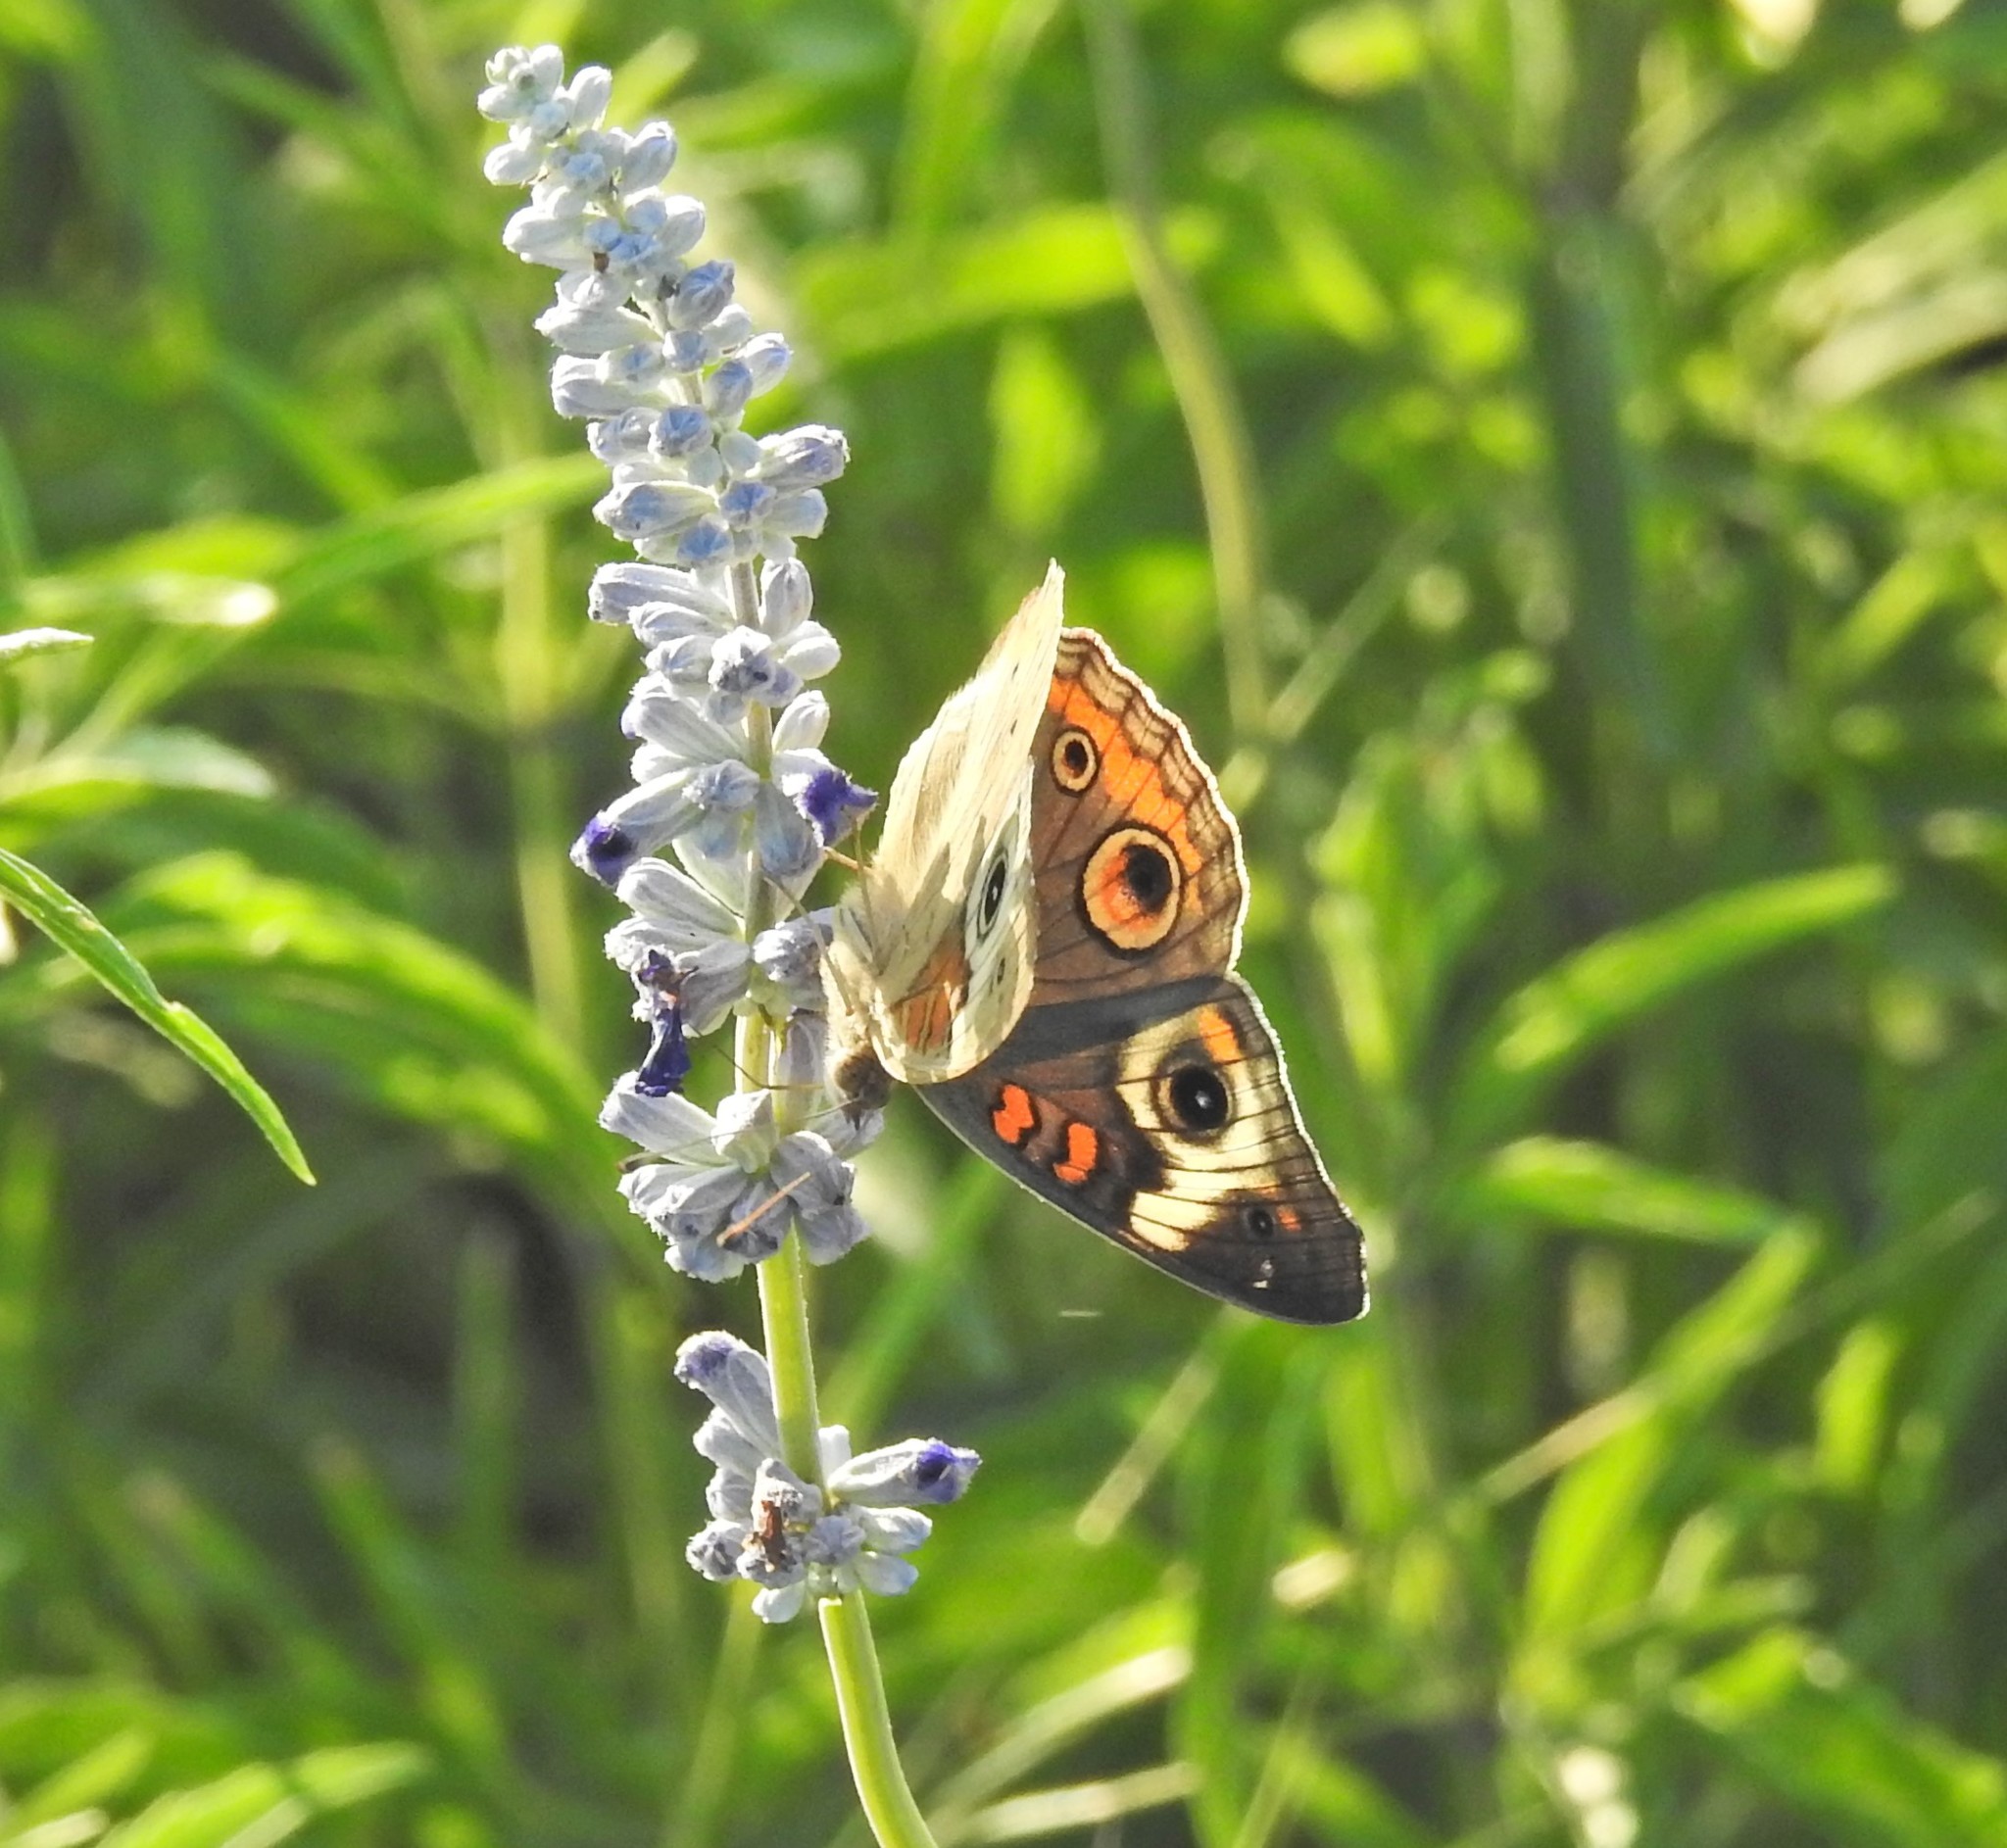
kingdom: Animalia
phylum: Arthropoda
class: Insecta
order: Lepidoptera
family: Nymphalidae
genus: Junonia
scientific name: Junonia coenia
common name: Common buckeye
